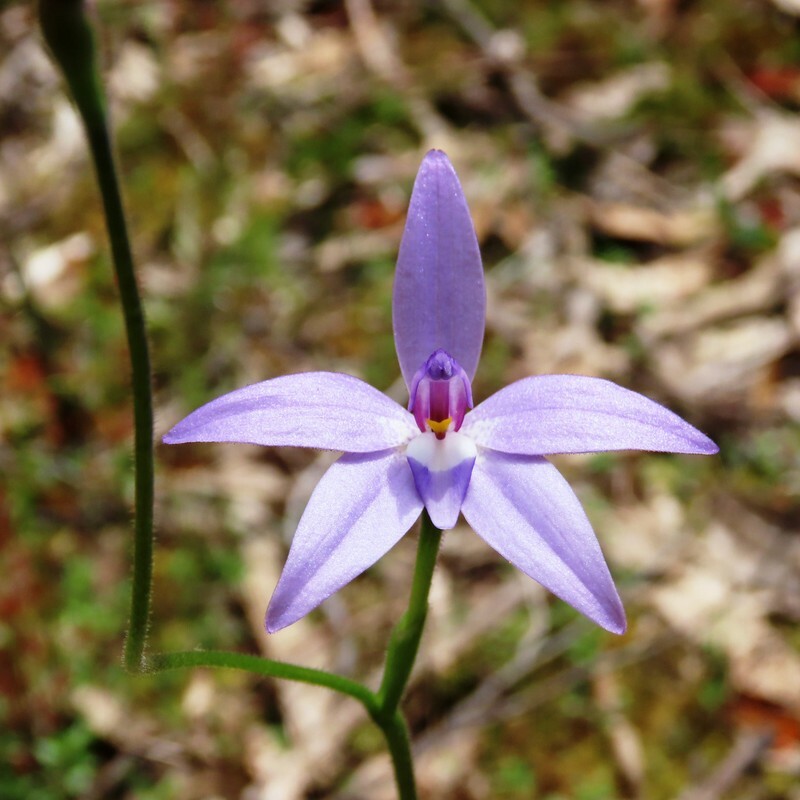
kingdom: Plantae
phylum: Tracheophyta
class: Liliopsida
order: Asparagales
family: Orchidaceae
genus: Caladenia
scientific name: Caladenia major
